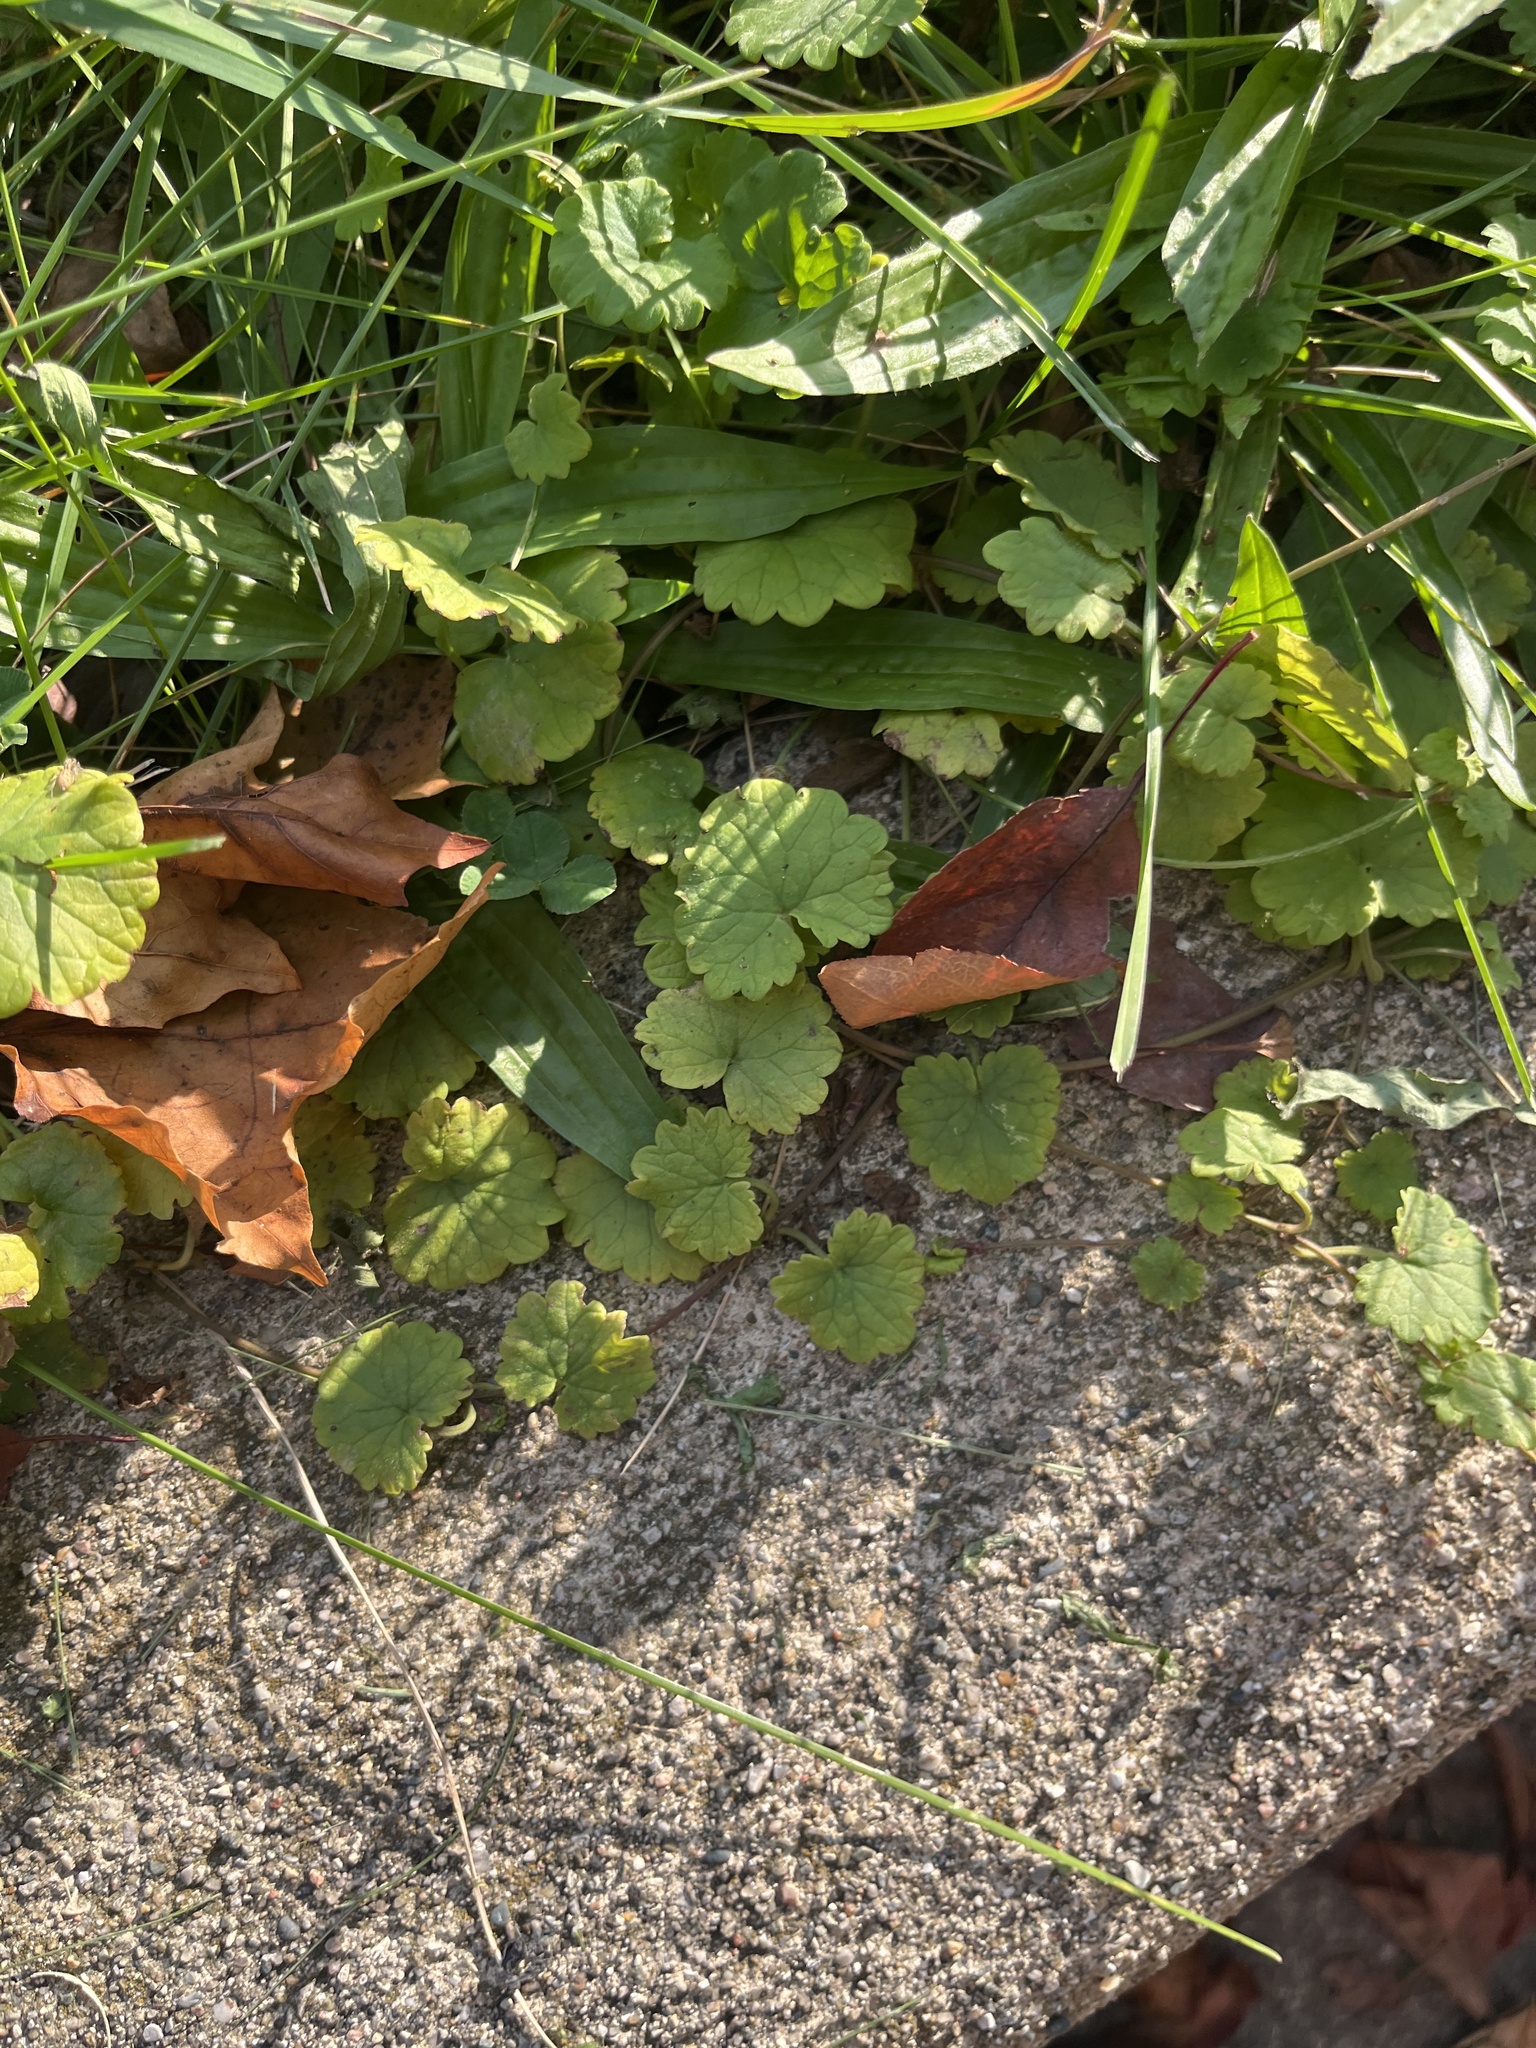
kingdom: Plantae
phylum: Tracheophyta
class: Magnoliopsida
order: Lamiales
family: Lamiaceae
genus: Glechoma
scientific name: Glechoma hederacea
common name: Ground ivy
